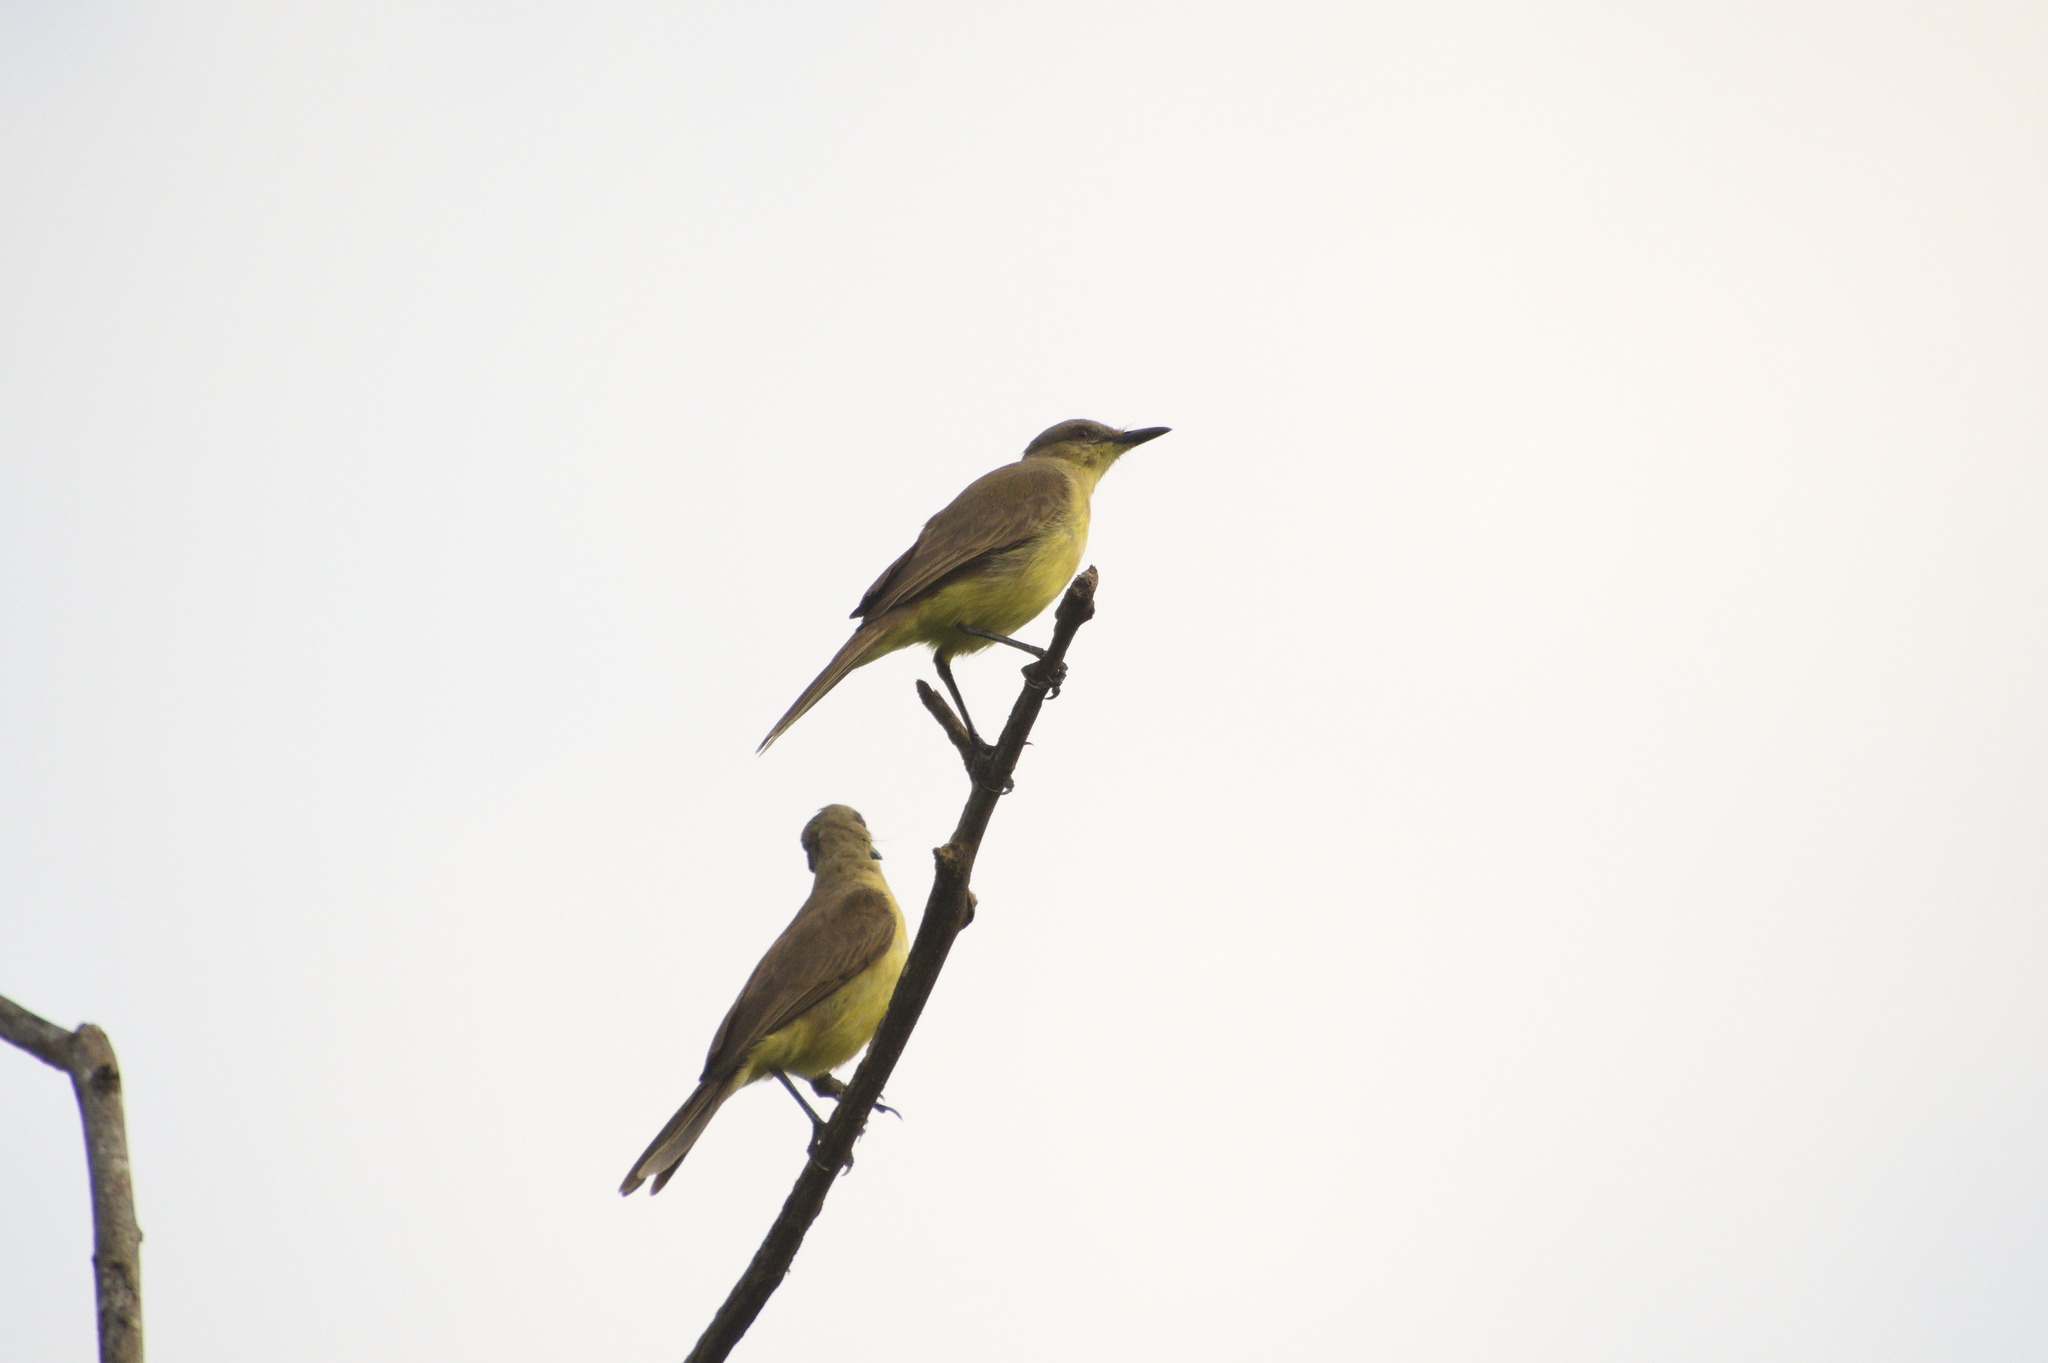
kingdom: Animalia
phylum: Chordata
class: Aves
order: Passeriformes
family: Tyrannidae
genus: Machetornis
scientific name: Machetornis rixosa
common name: Cattle tyrant
